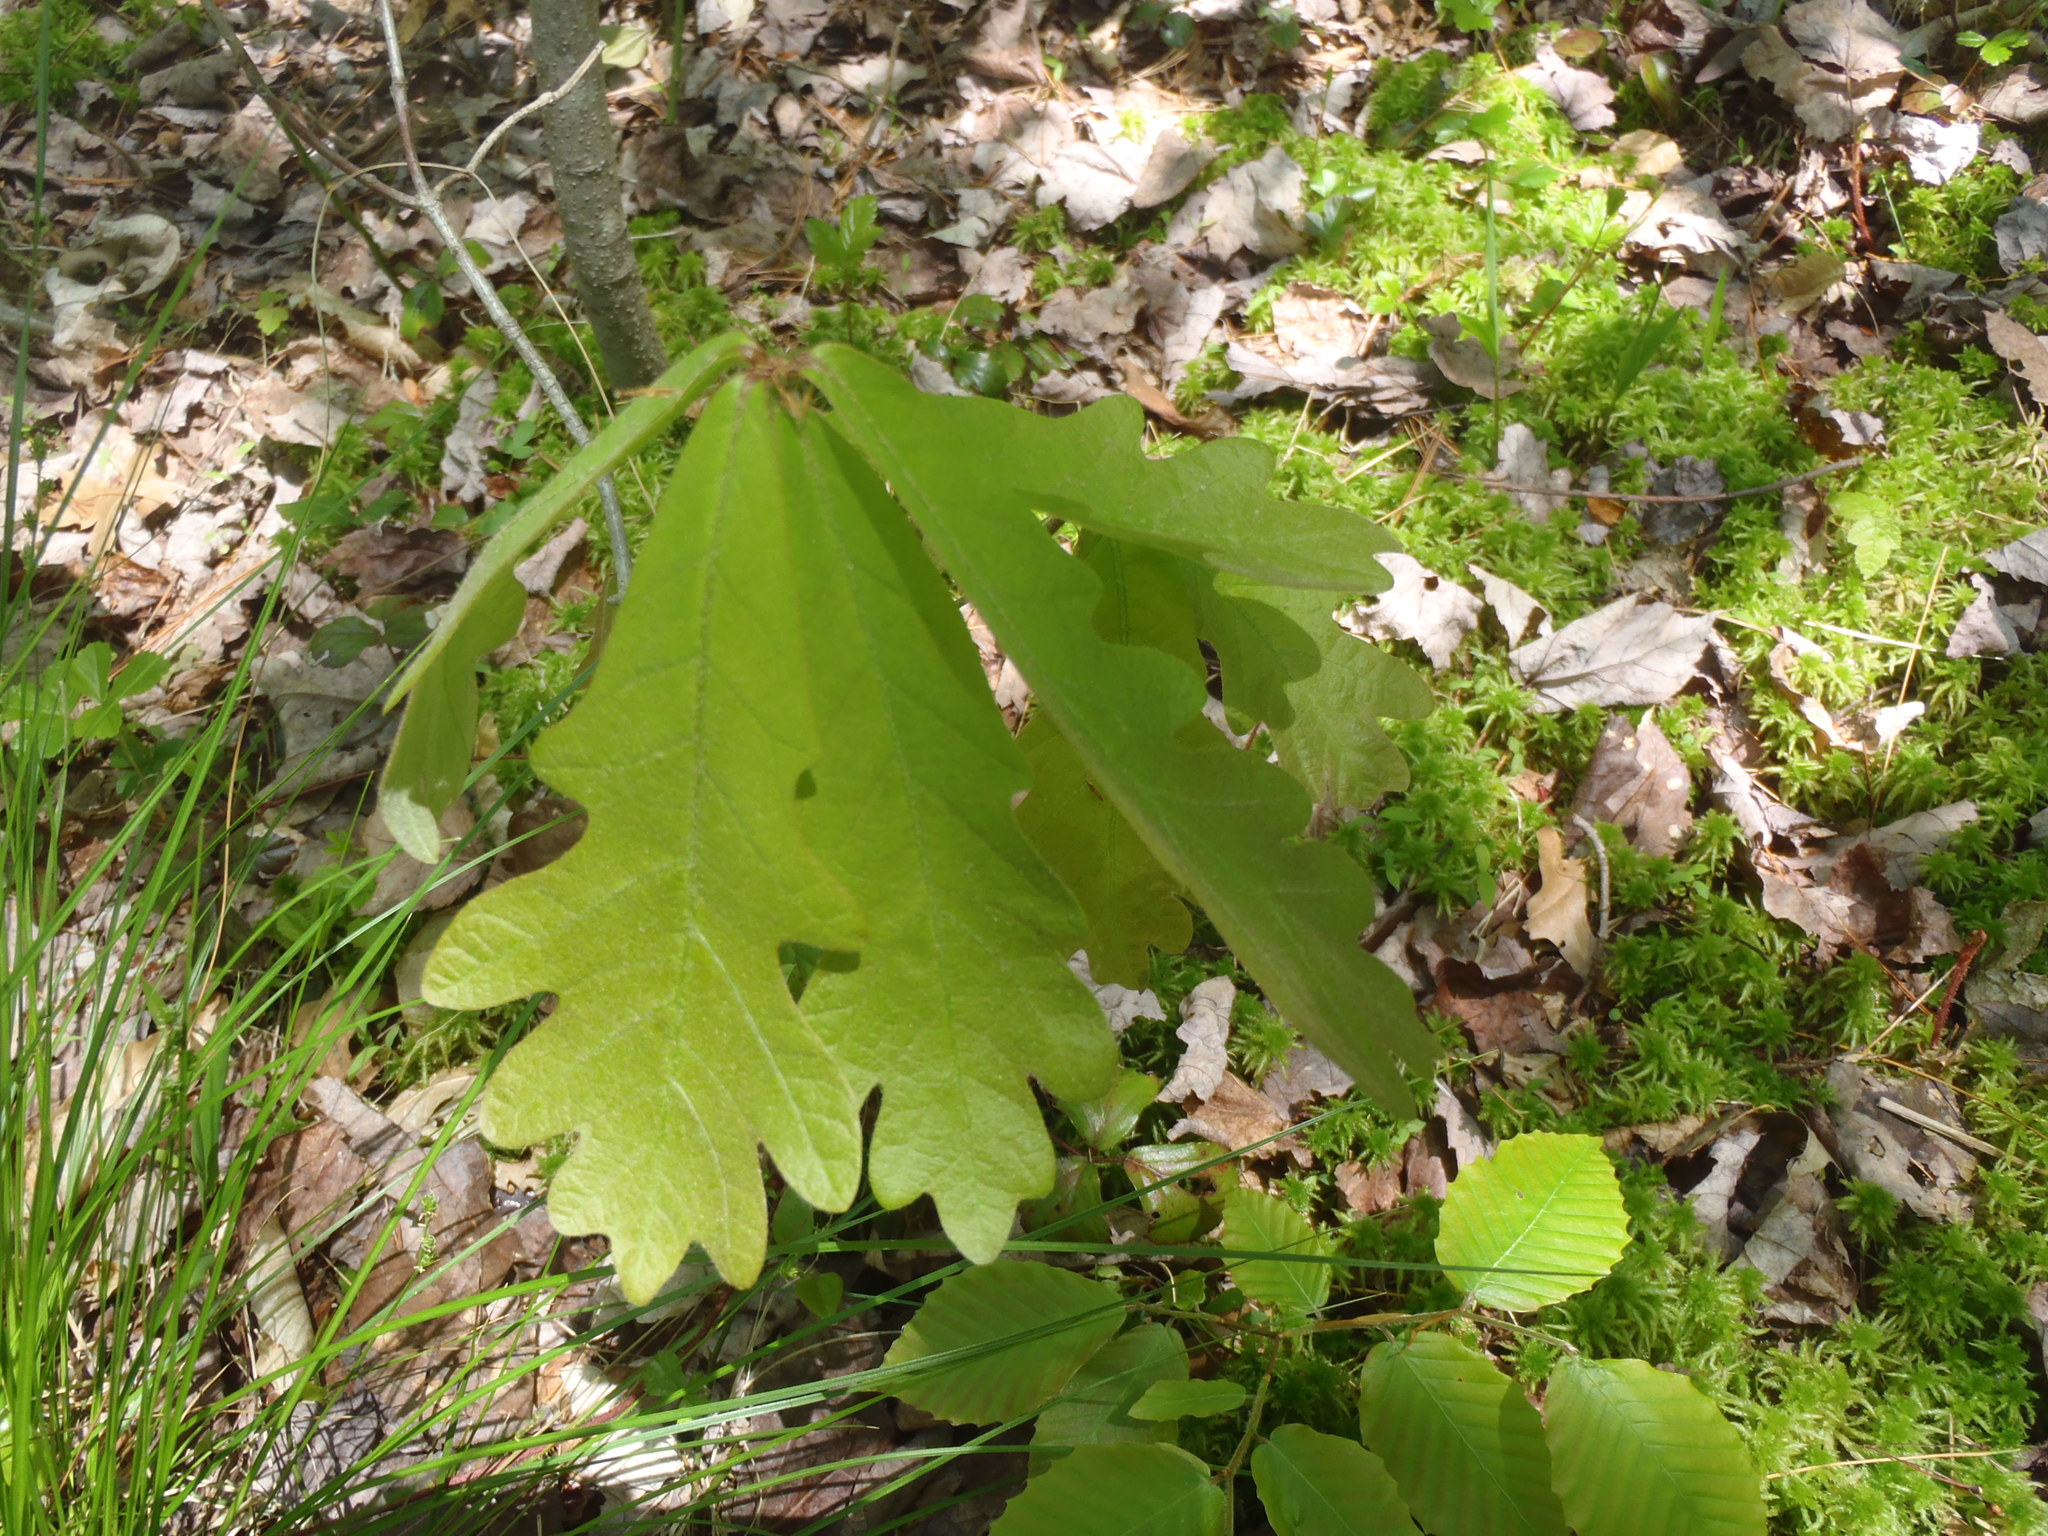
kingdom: Plantae
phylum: Tracheophyta
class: Magnoliopsida
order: Fagales
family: Fagaceae
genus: Quercus
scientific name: Quercus alba
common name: White oak
